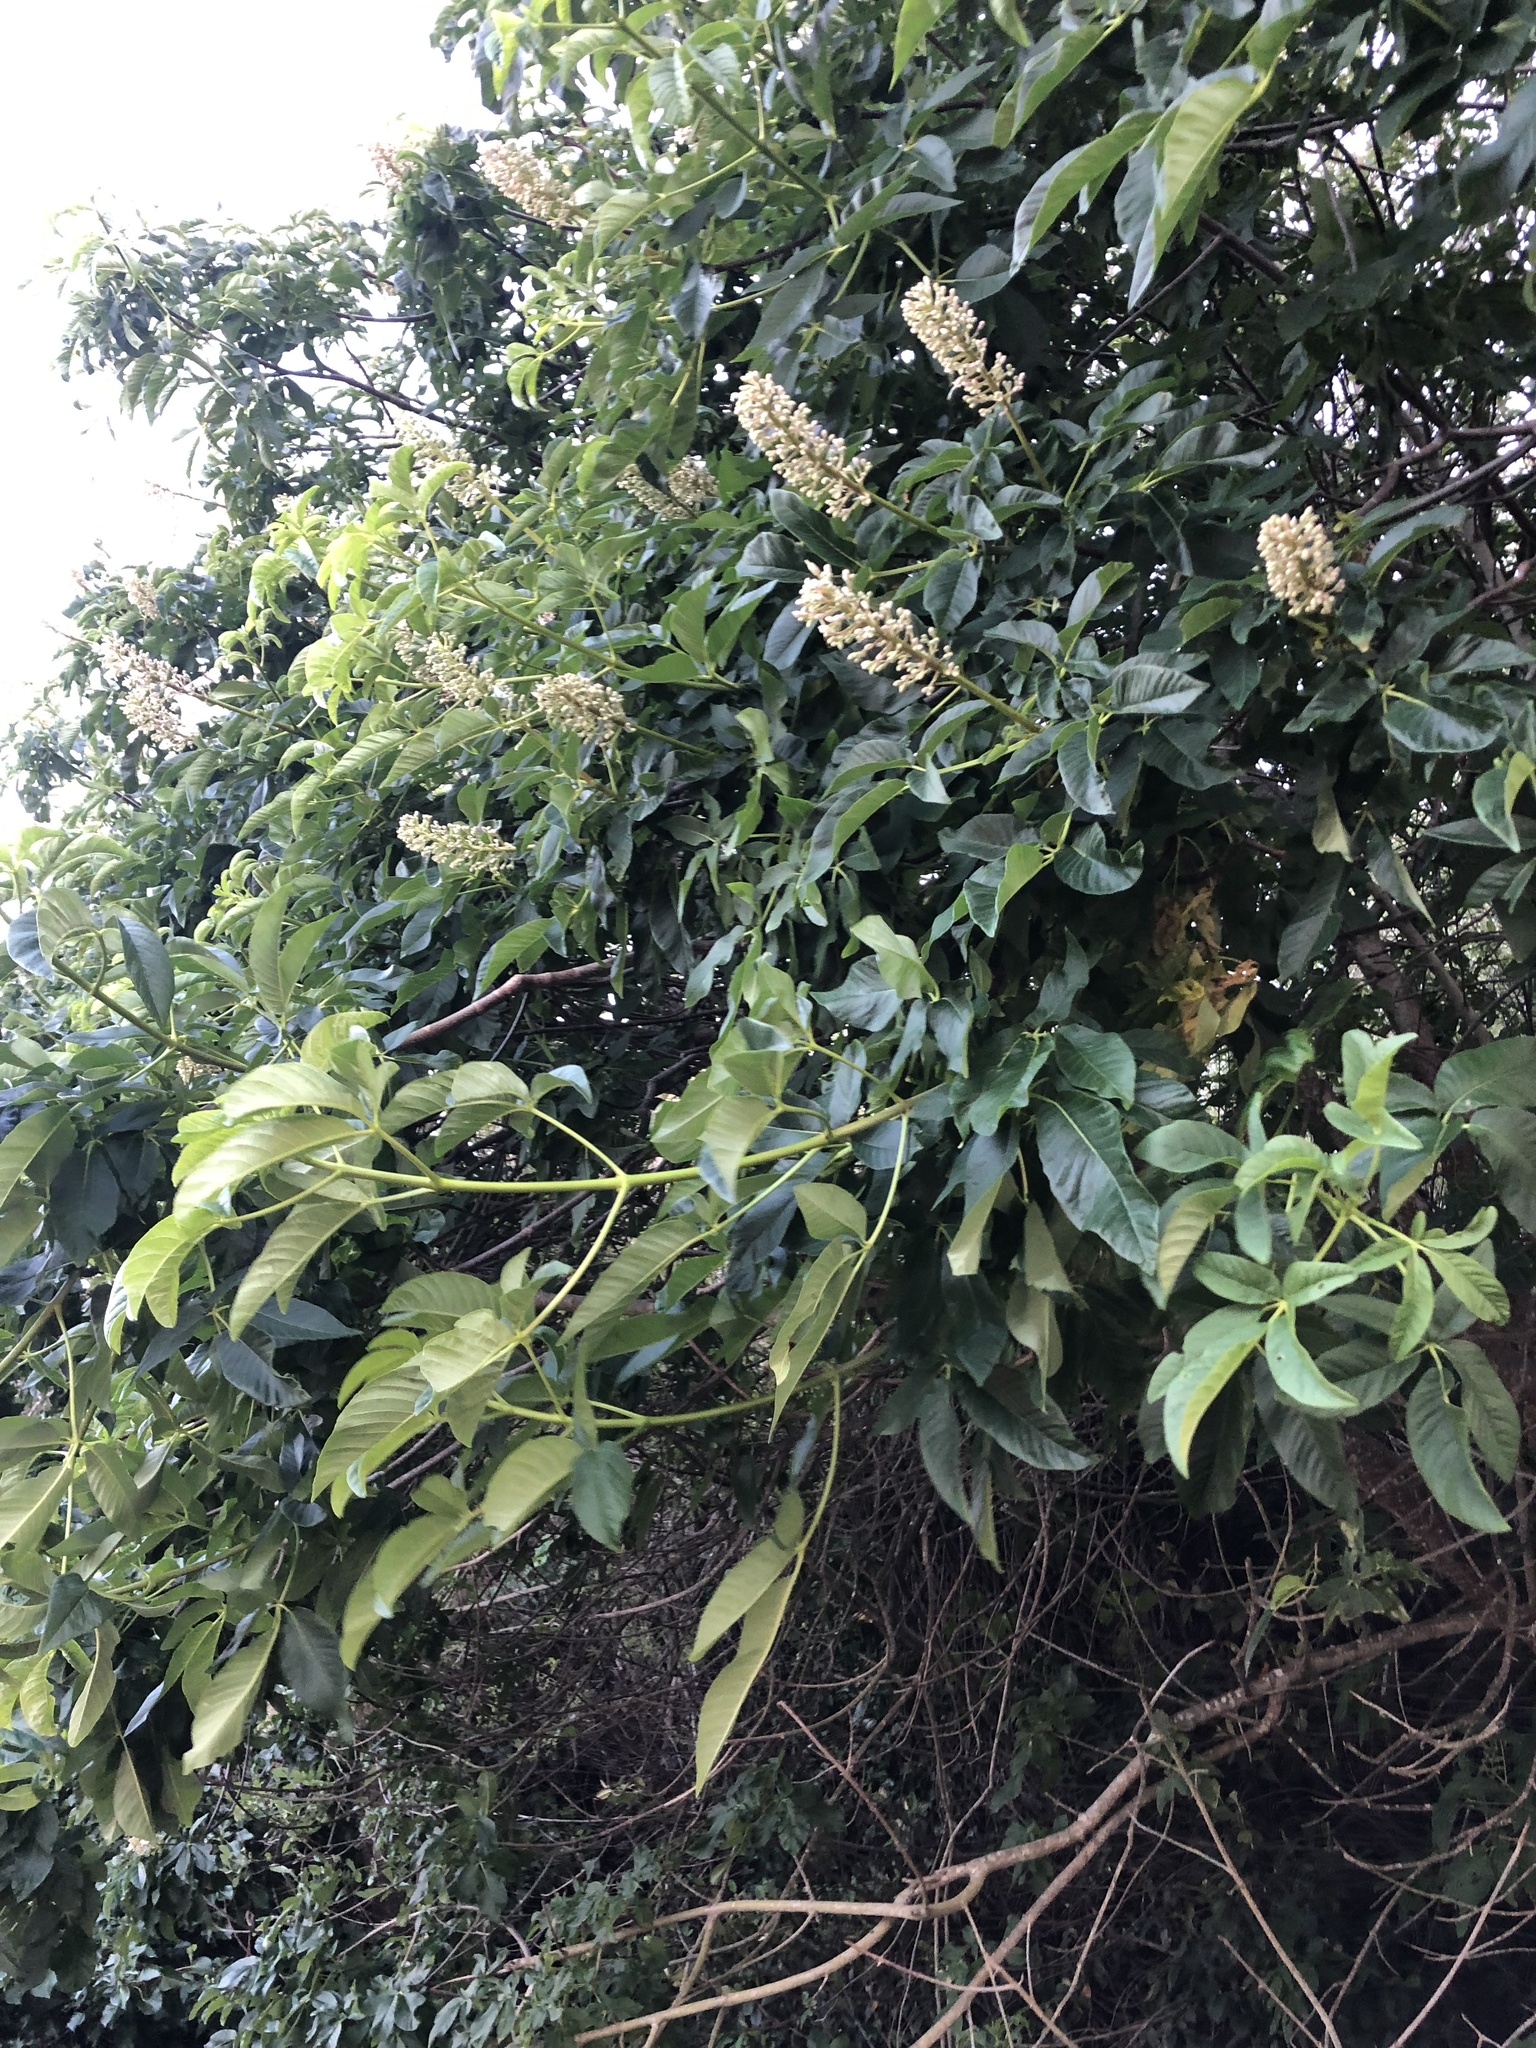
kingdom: Plantae
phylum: Tracheophyta
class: Magnoliopsida
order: Sapindales
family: Sapindaceae
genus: Aesculus
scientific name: Aesculus californica
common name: California buckeye
